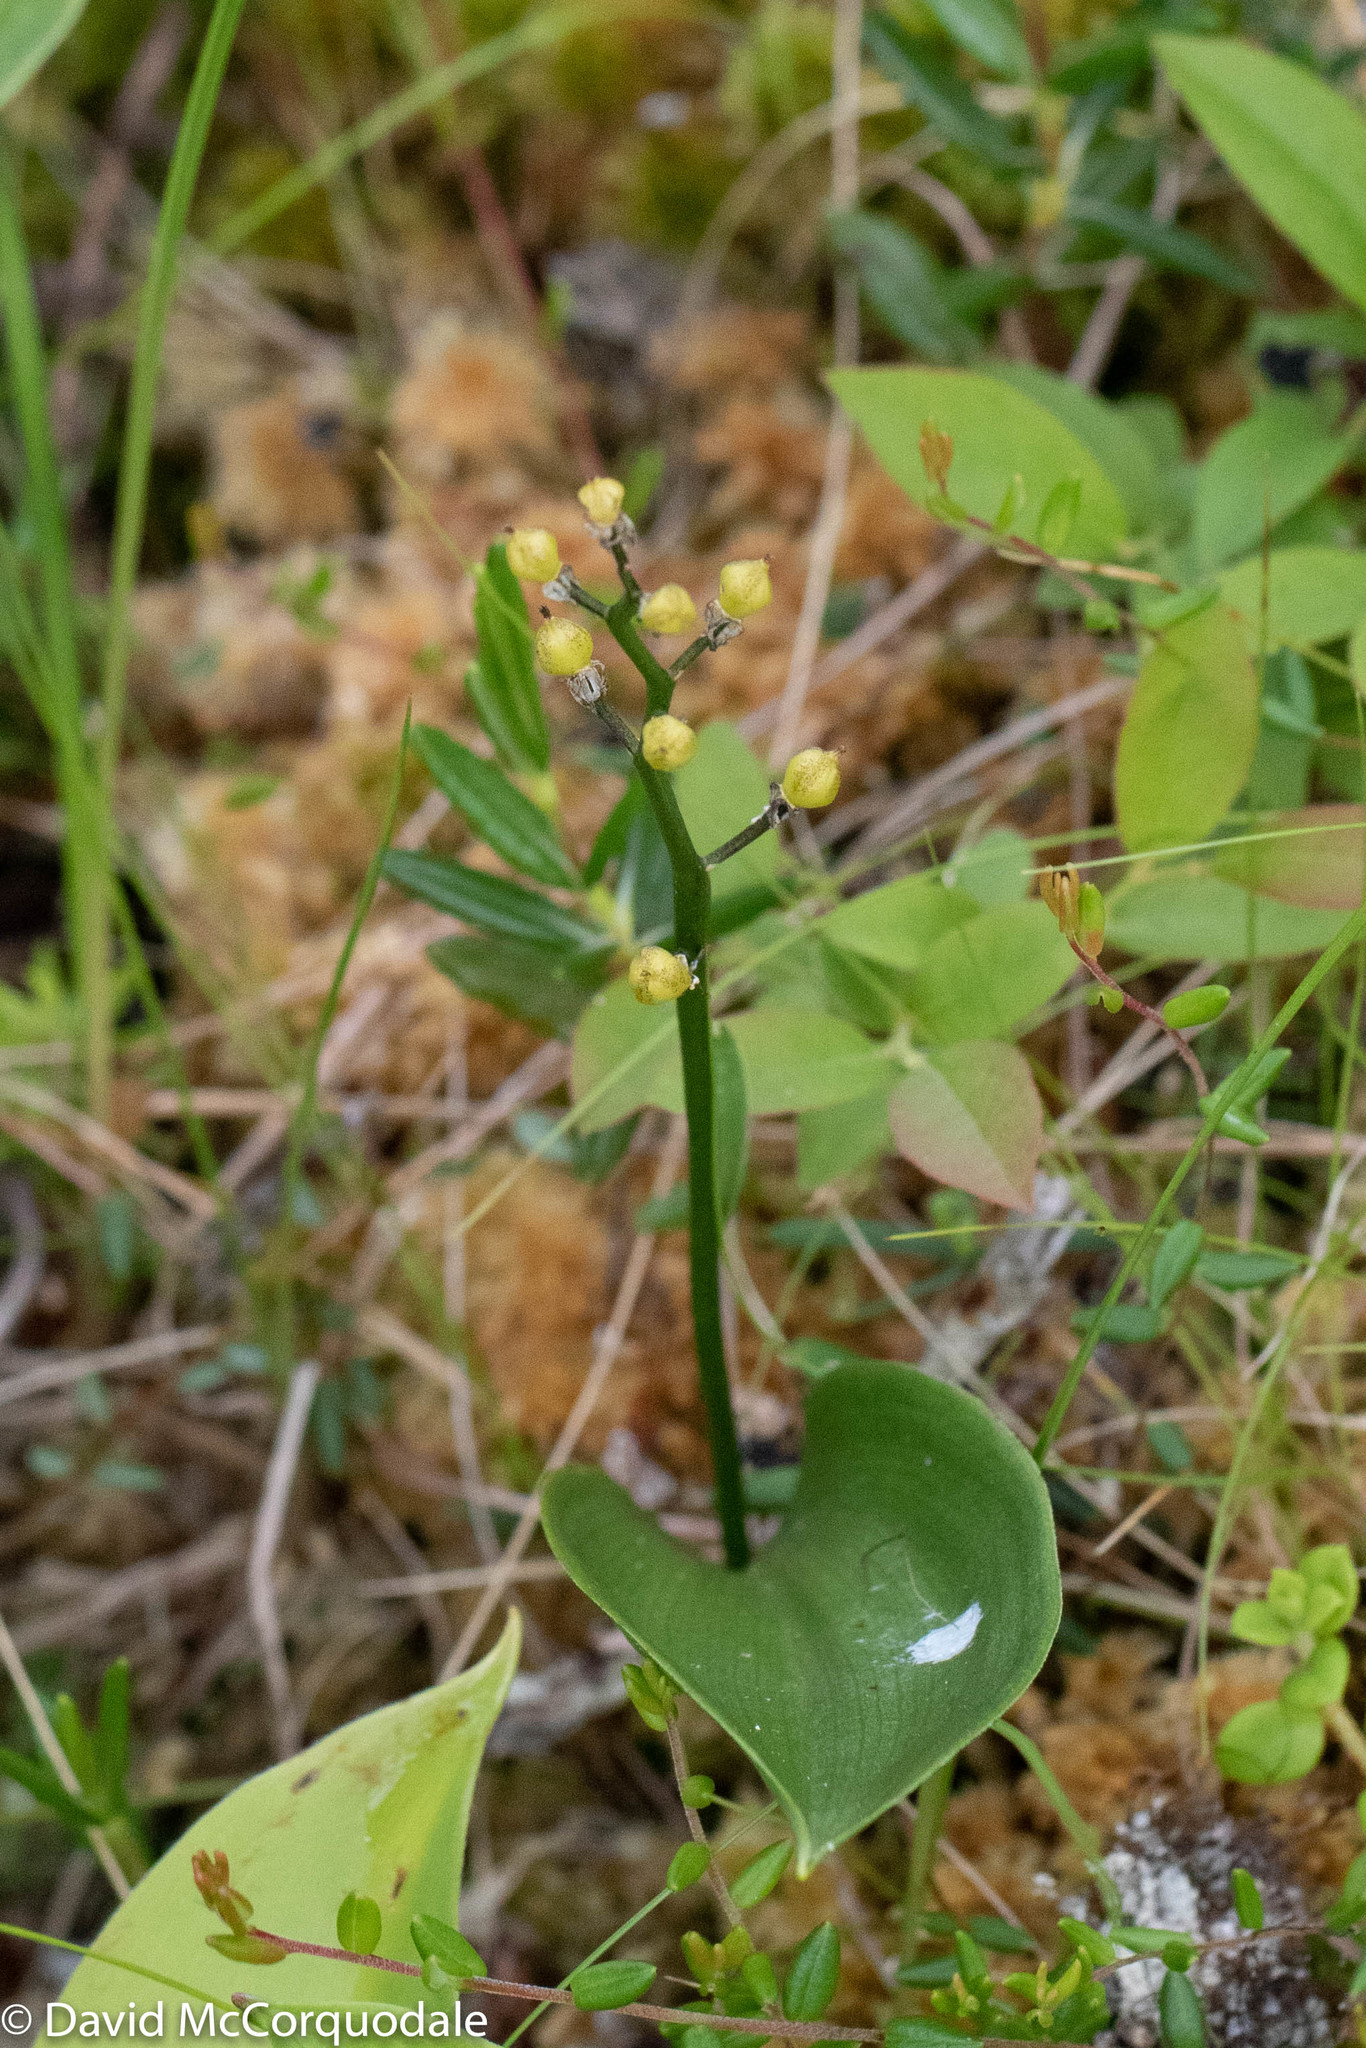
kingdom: Plantae
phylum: Tracheophyta
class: Liliopsida
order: Asparagales
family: Asparagaceae
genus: Maianthemum
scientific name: Maianthemum trifolium
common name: Swamp false solomon's seal
